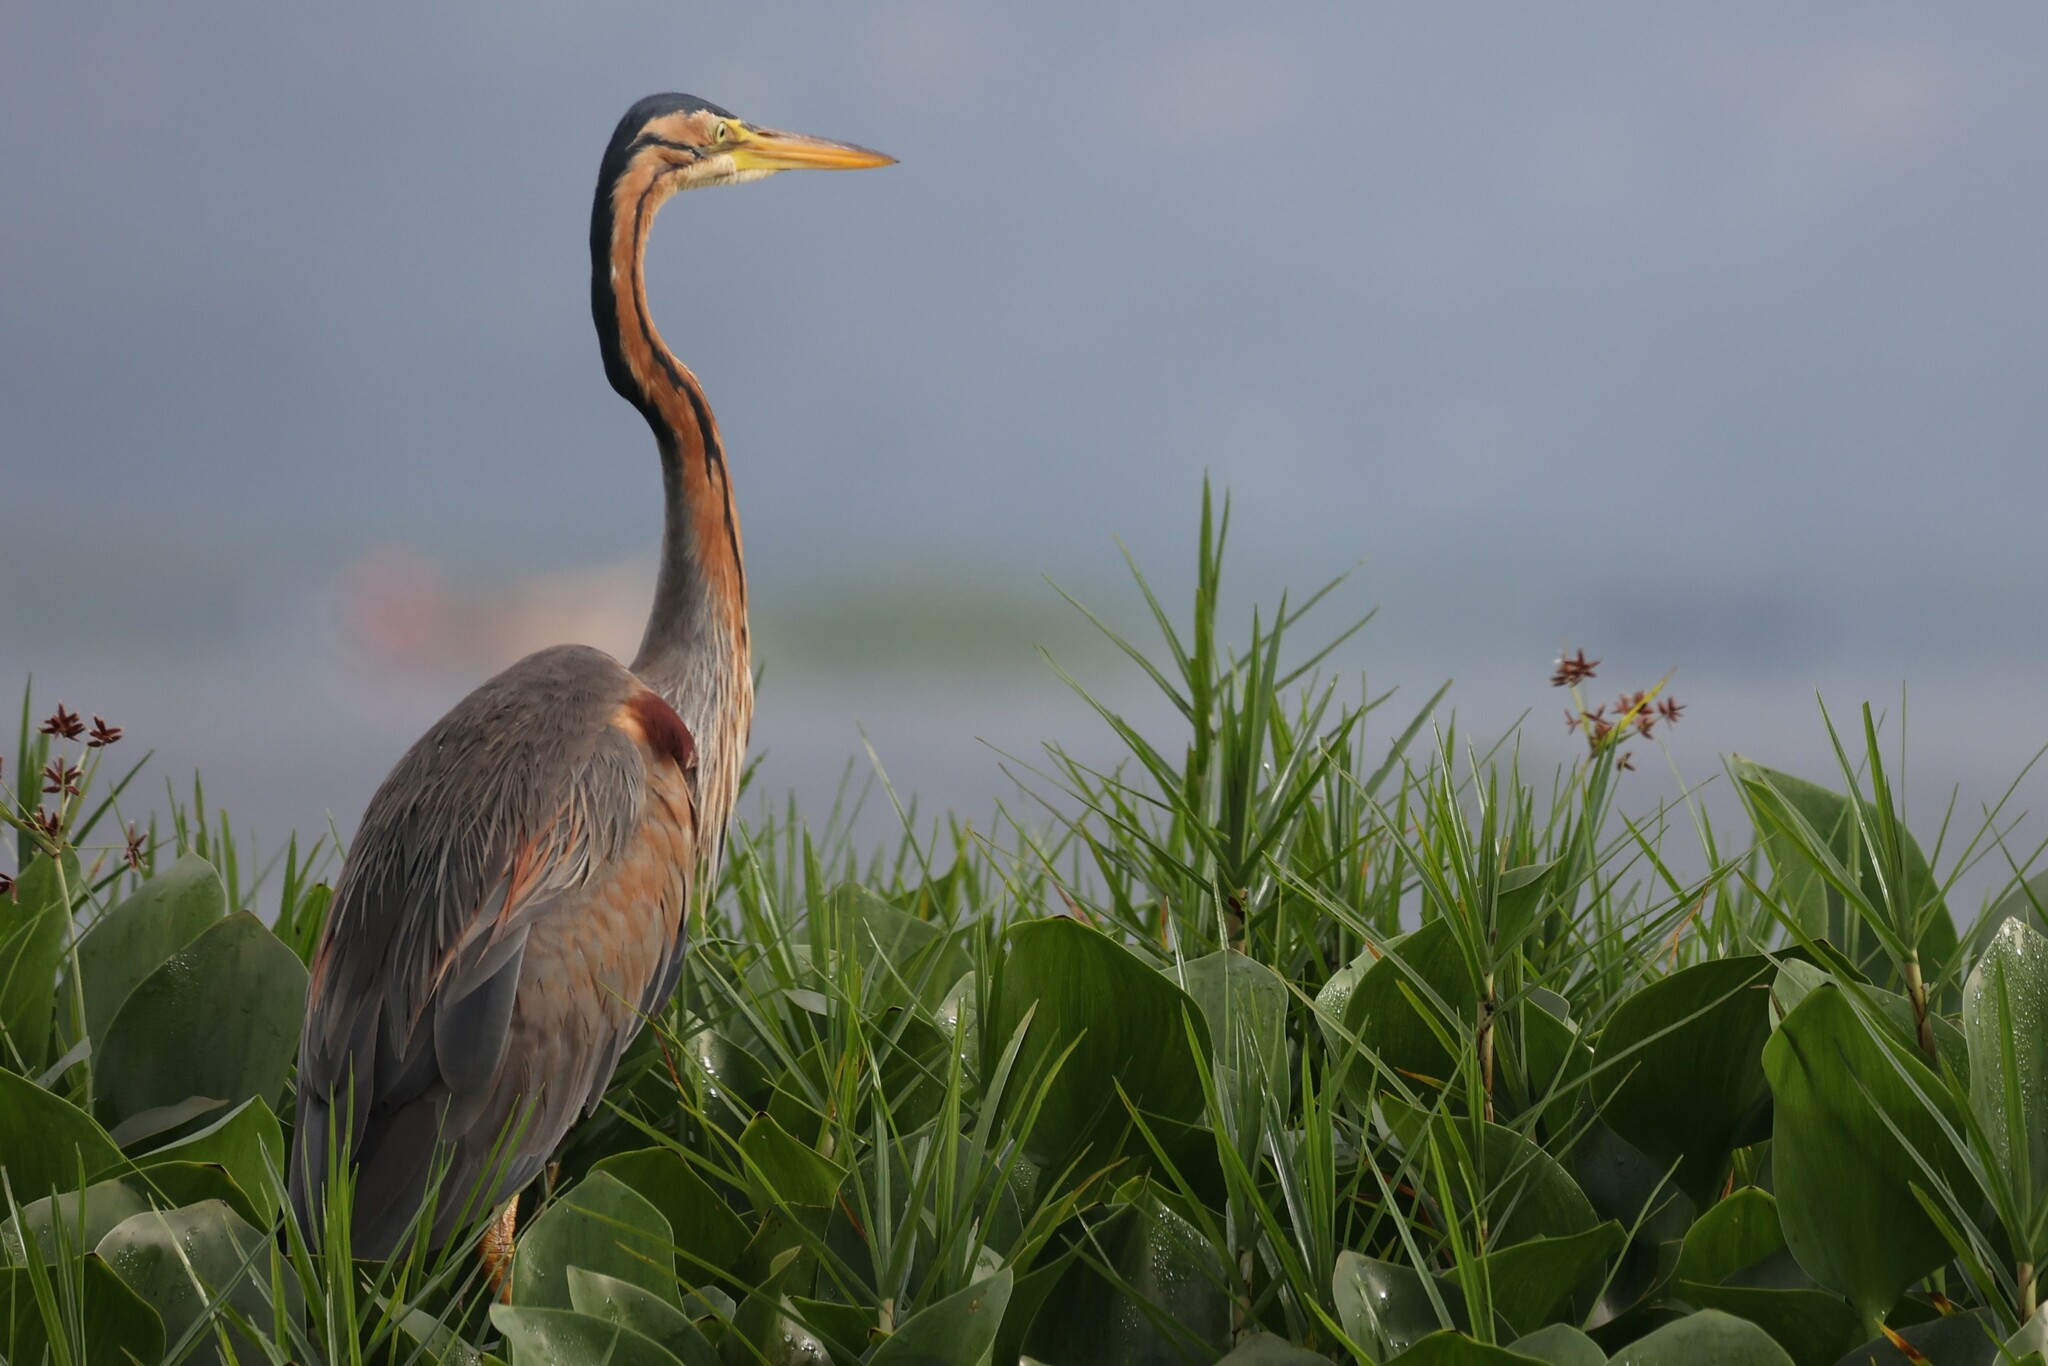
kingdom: Animalia
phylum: Chordata
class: Aves
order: Pelecaniformes
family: Ardeidae
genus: Ardea
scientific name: Ardea purpurea
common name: Purple heron
